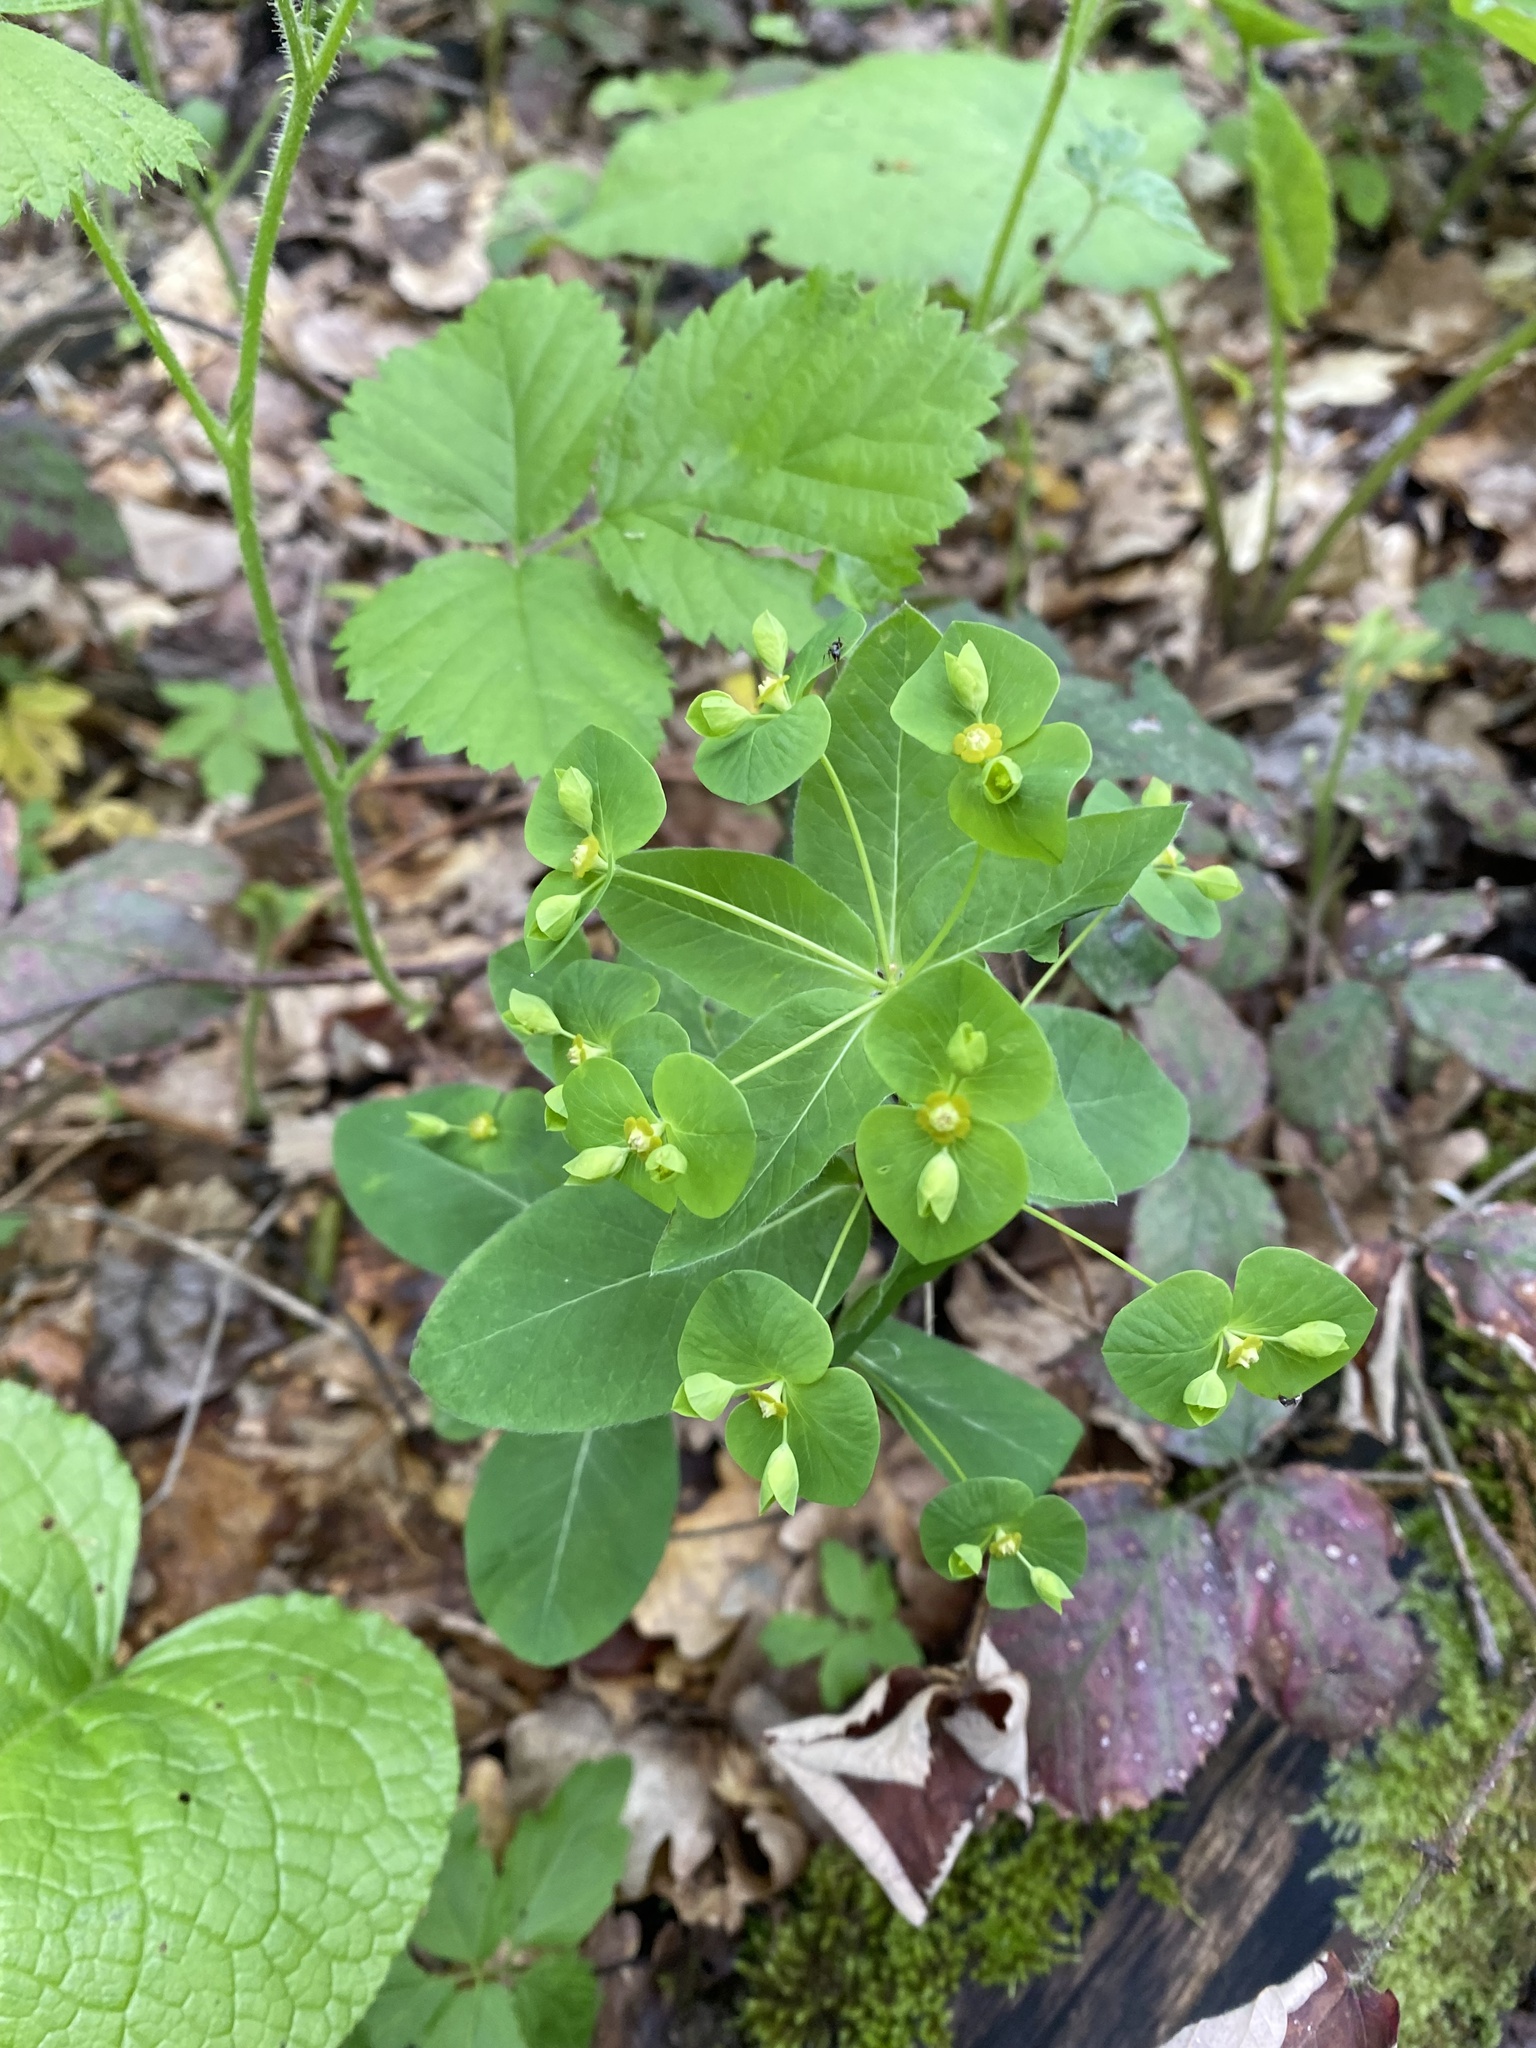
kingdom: Plantae
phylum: Tracheophyta
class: Magnoliopsida
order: Malpighiales
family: Euphorbiaceae
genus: Euphorbia
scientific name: Euphorbia squamosa
